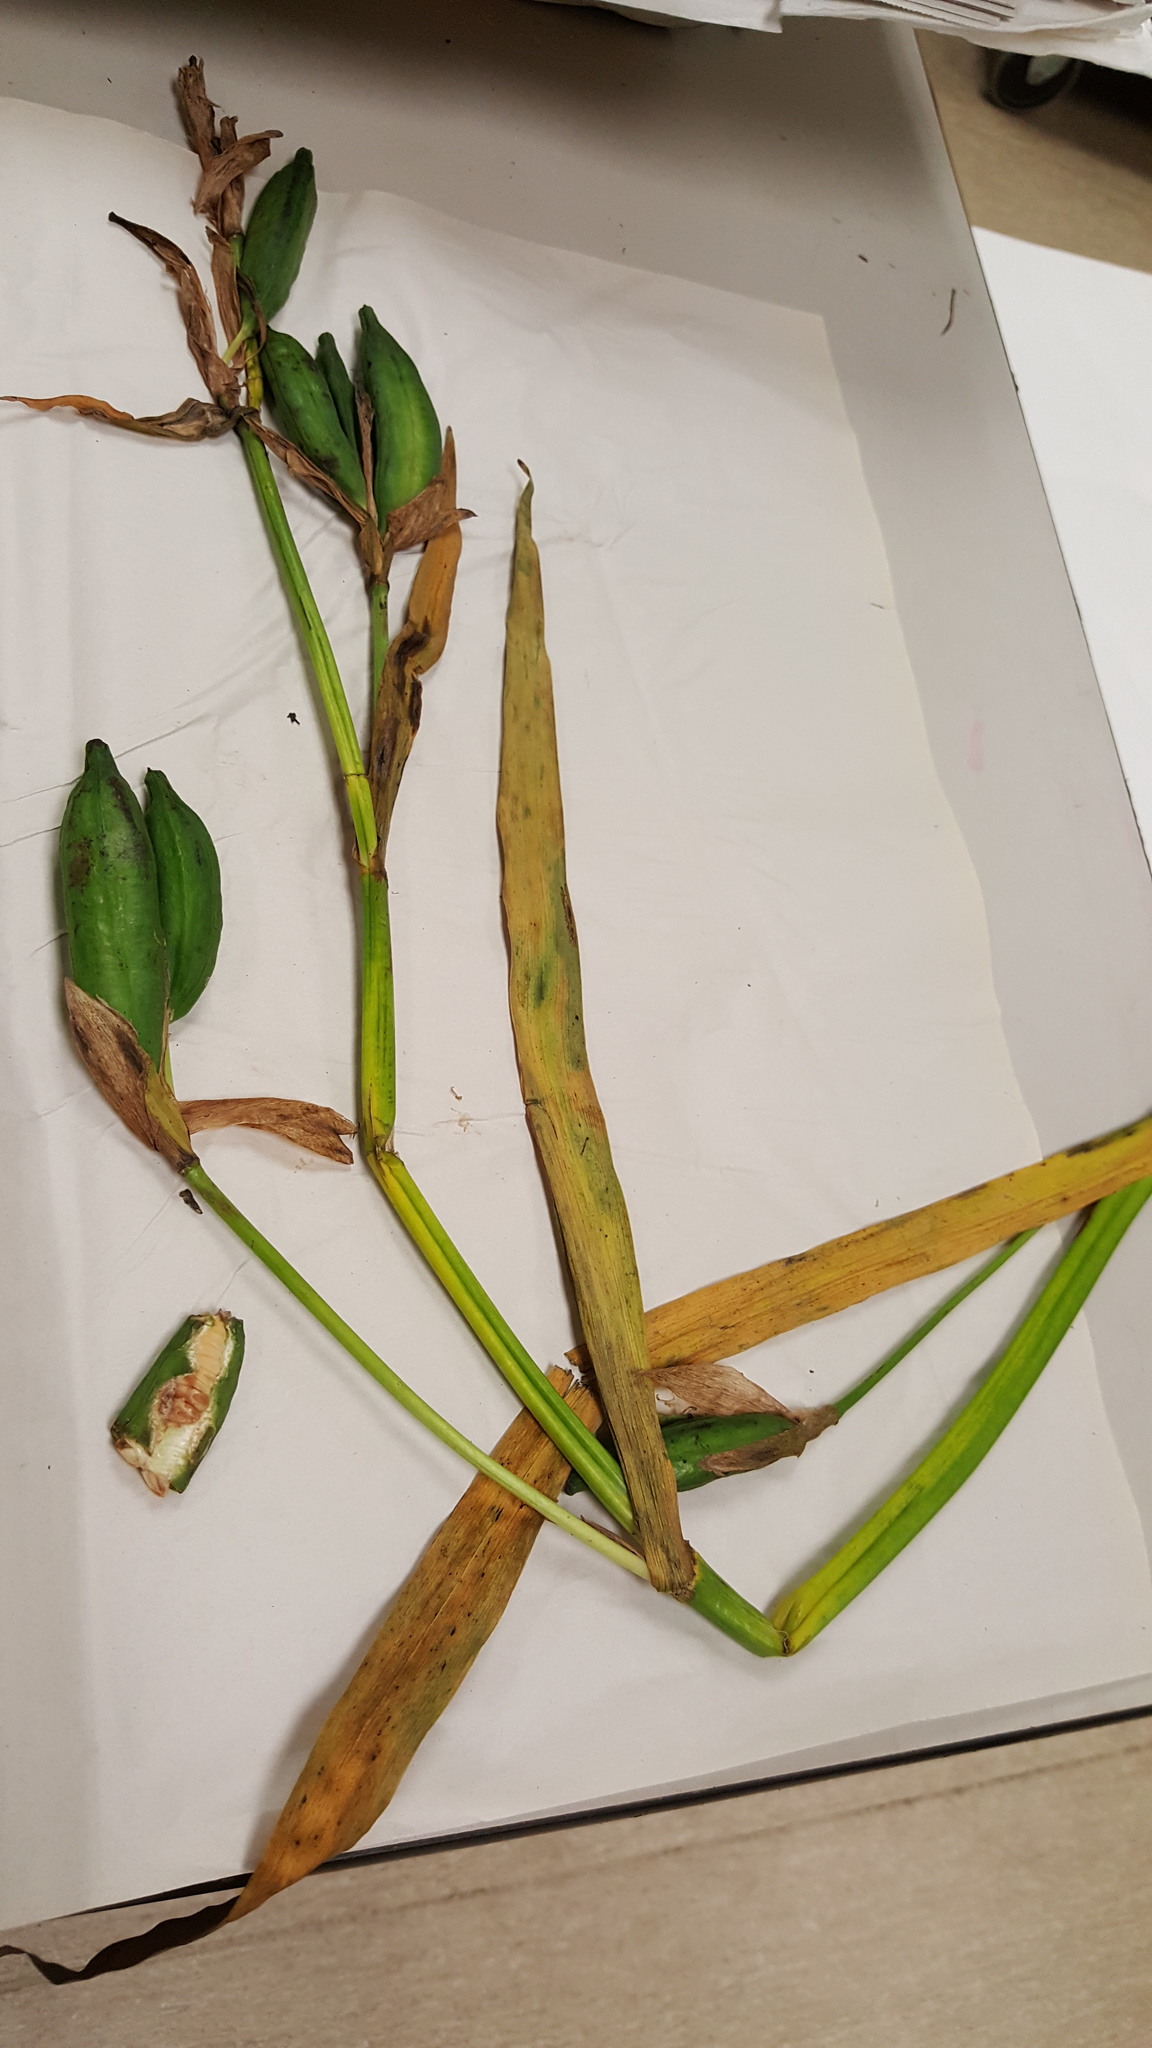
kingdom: Plantae
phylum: Tracheophyta
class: Liliopsida
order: Asparagales
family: Iridaceae
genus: Iris
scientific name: Iris versicolor
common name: Purple iris
